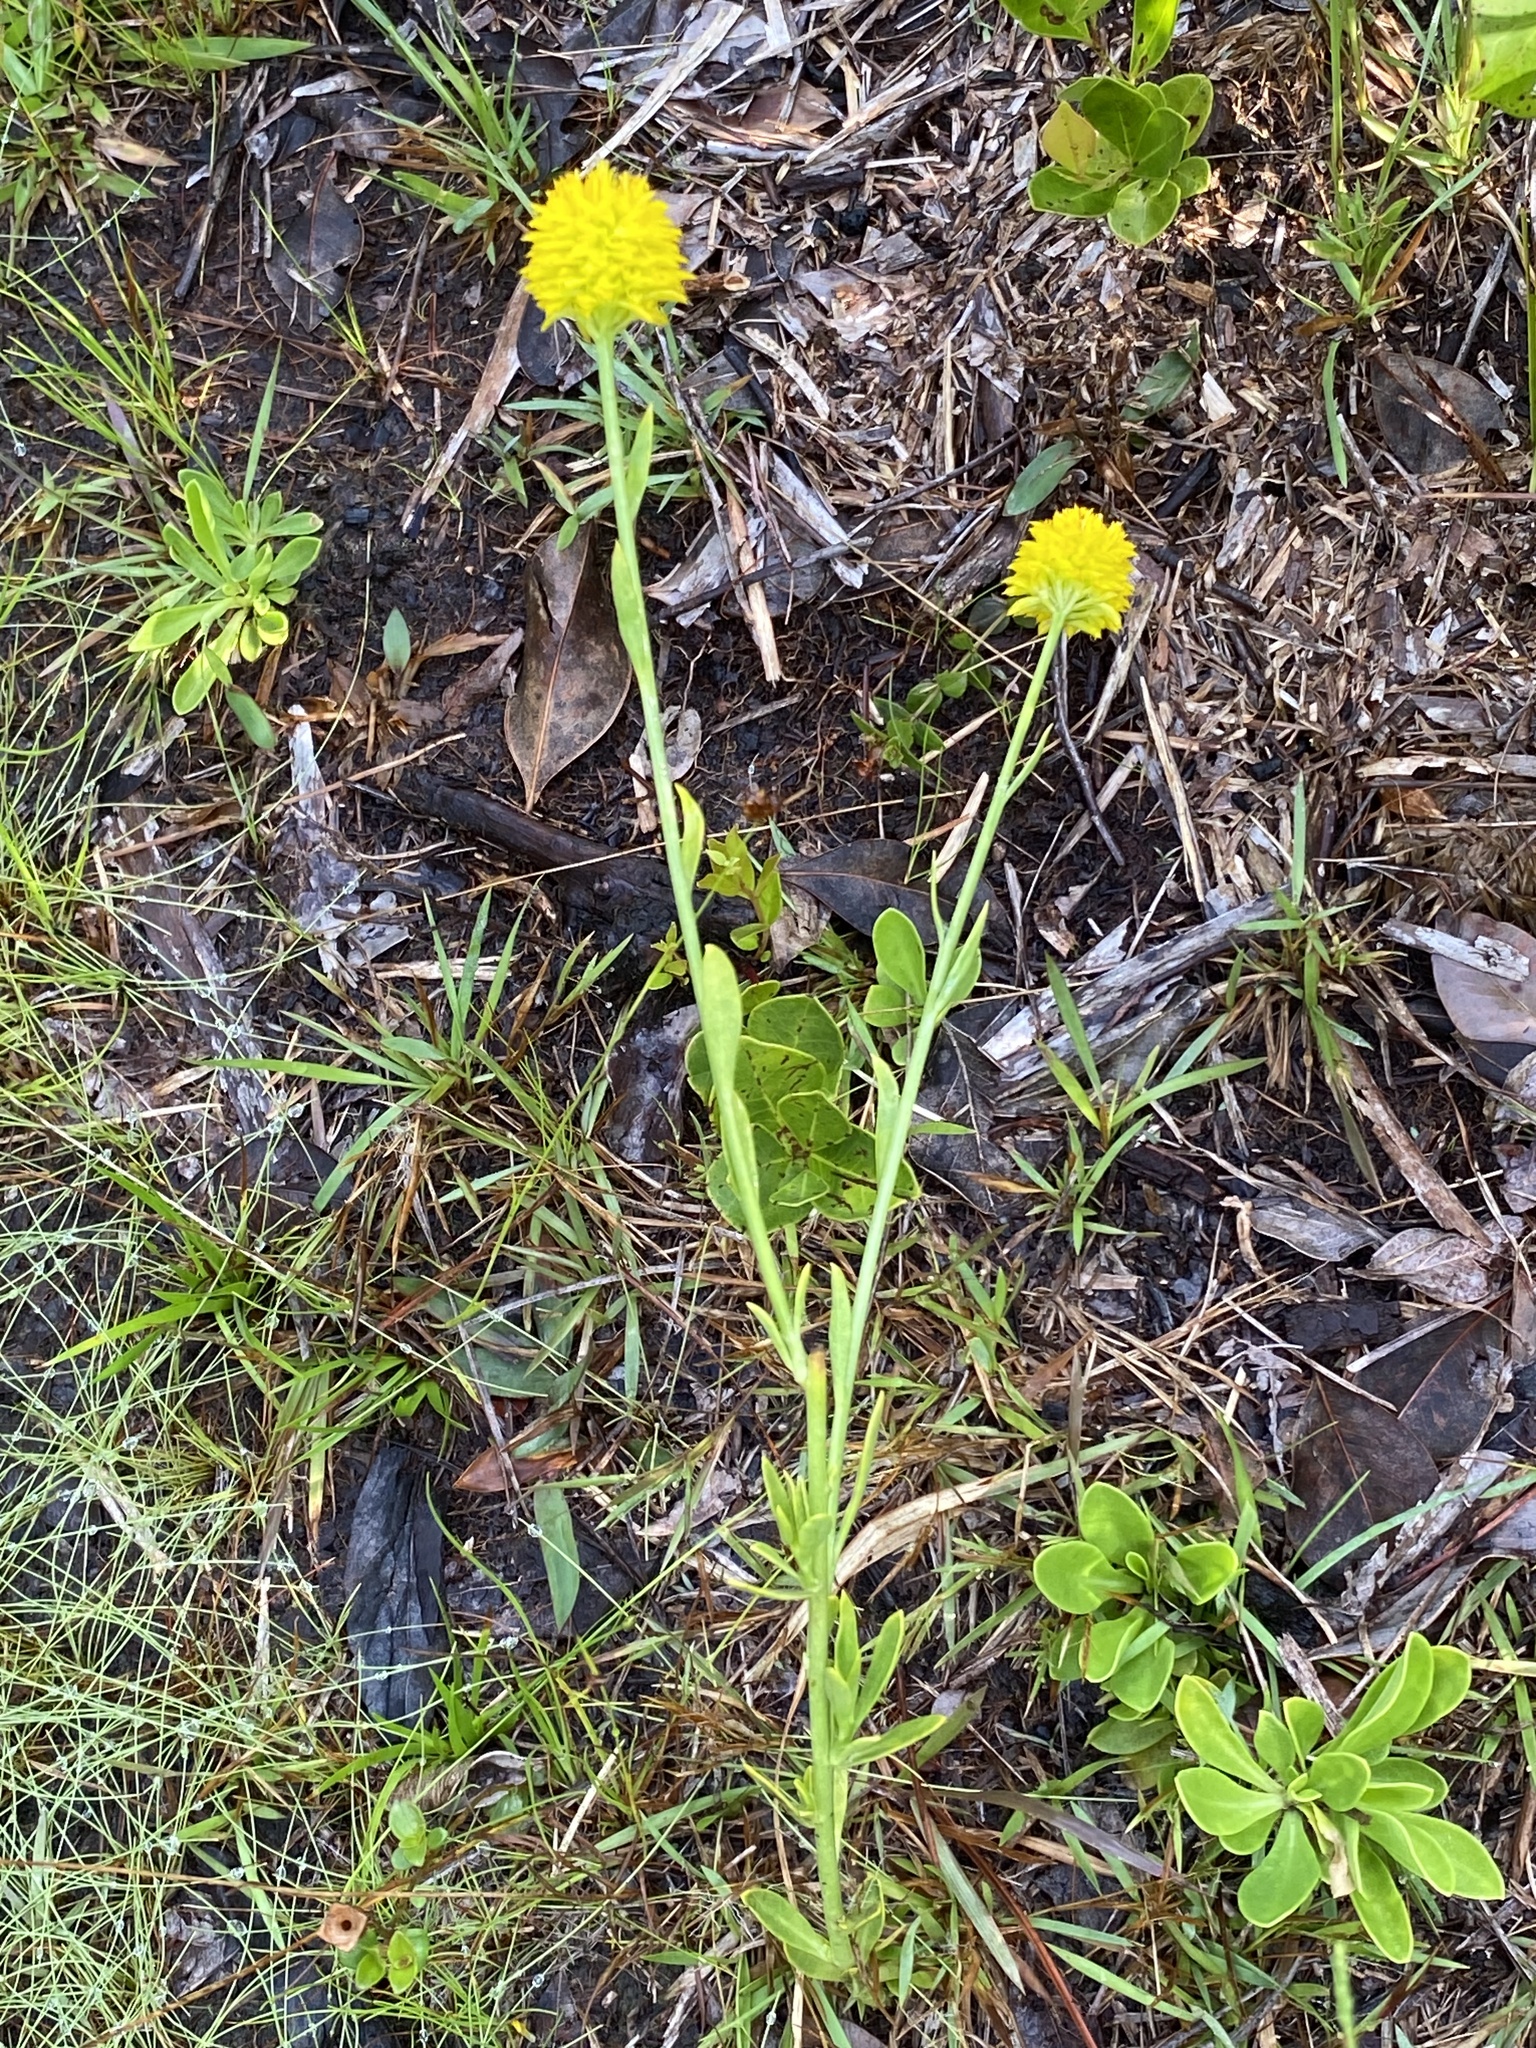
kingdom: Plantae
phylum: Tracheophyta
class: Magnoliopsida
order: Fabales
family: Polygalaceae
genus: Polygala
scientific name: Polygala rugelii
